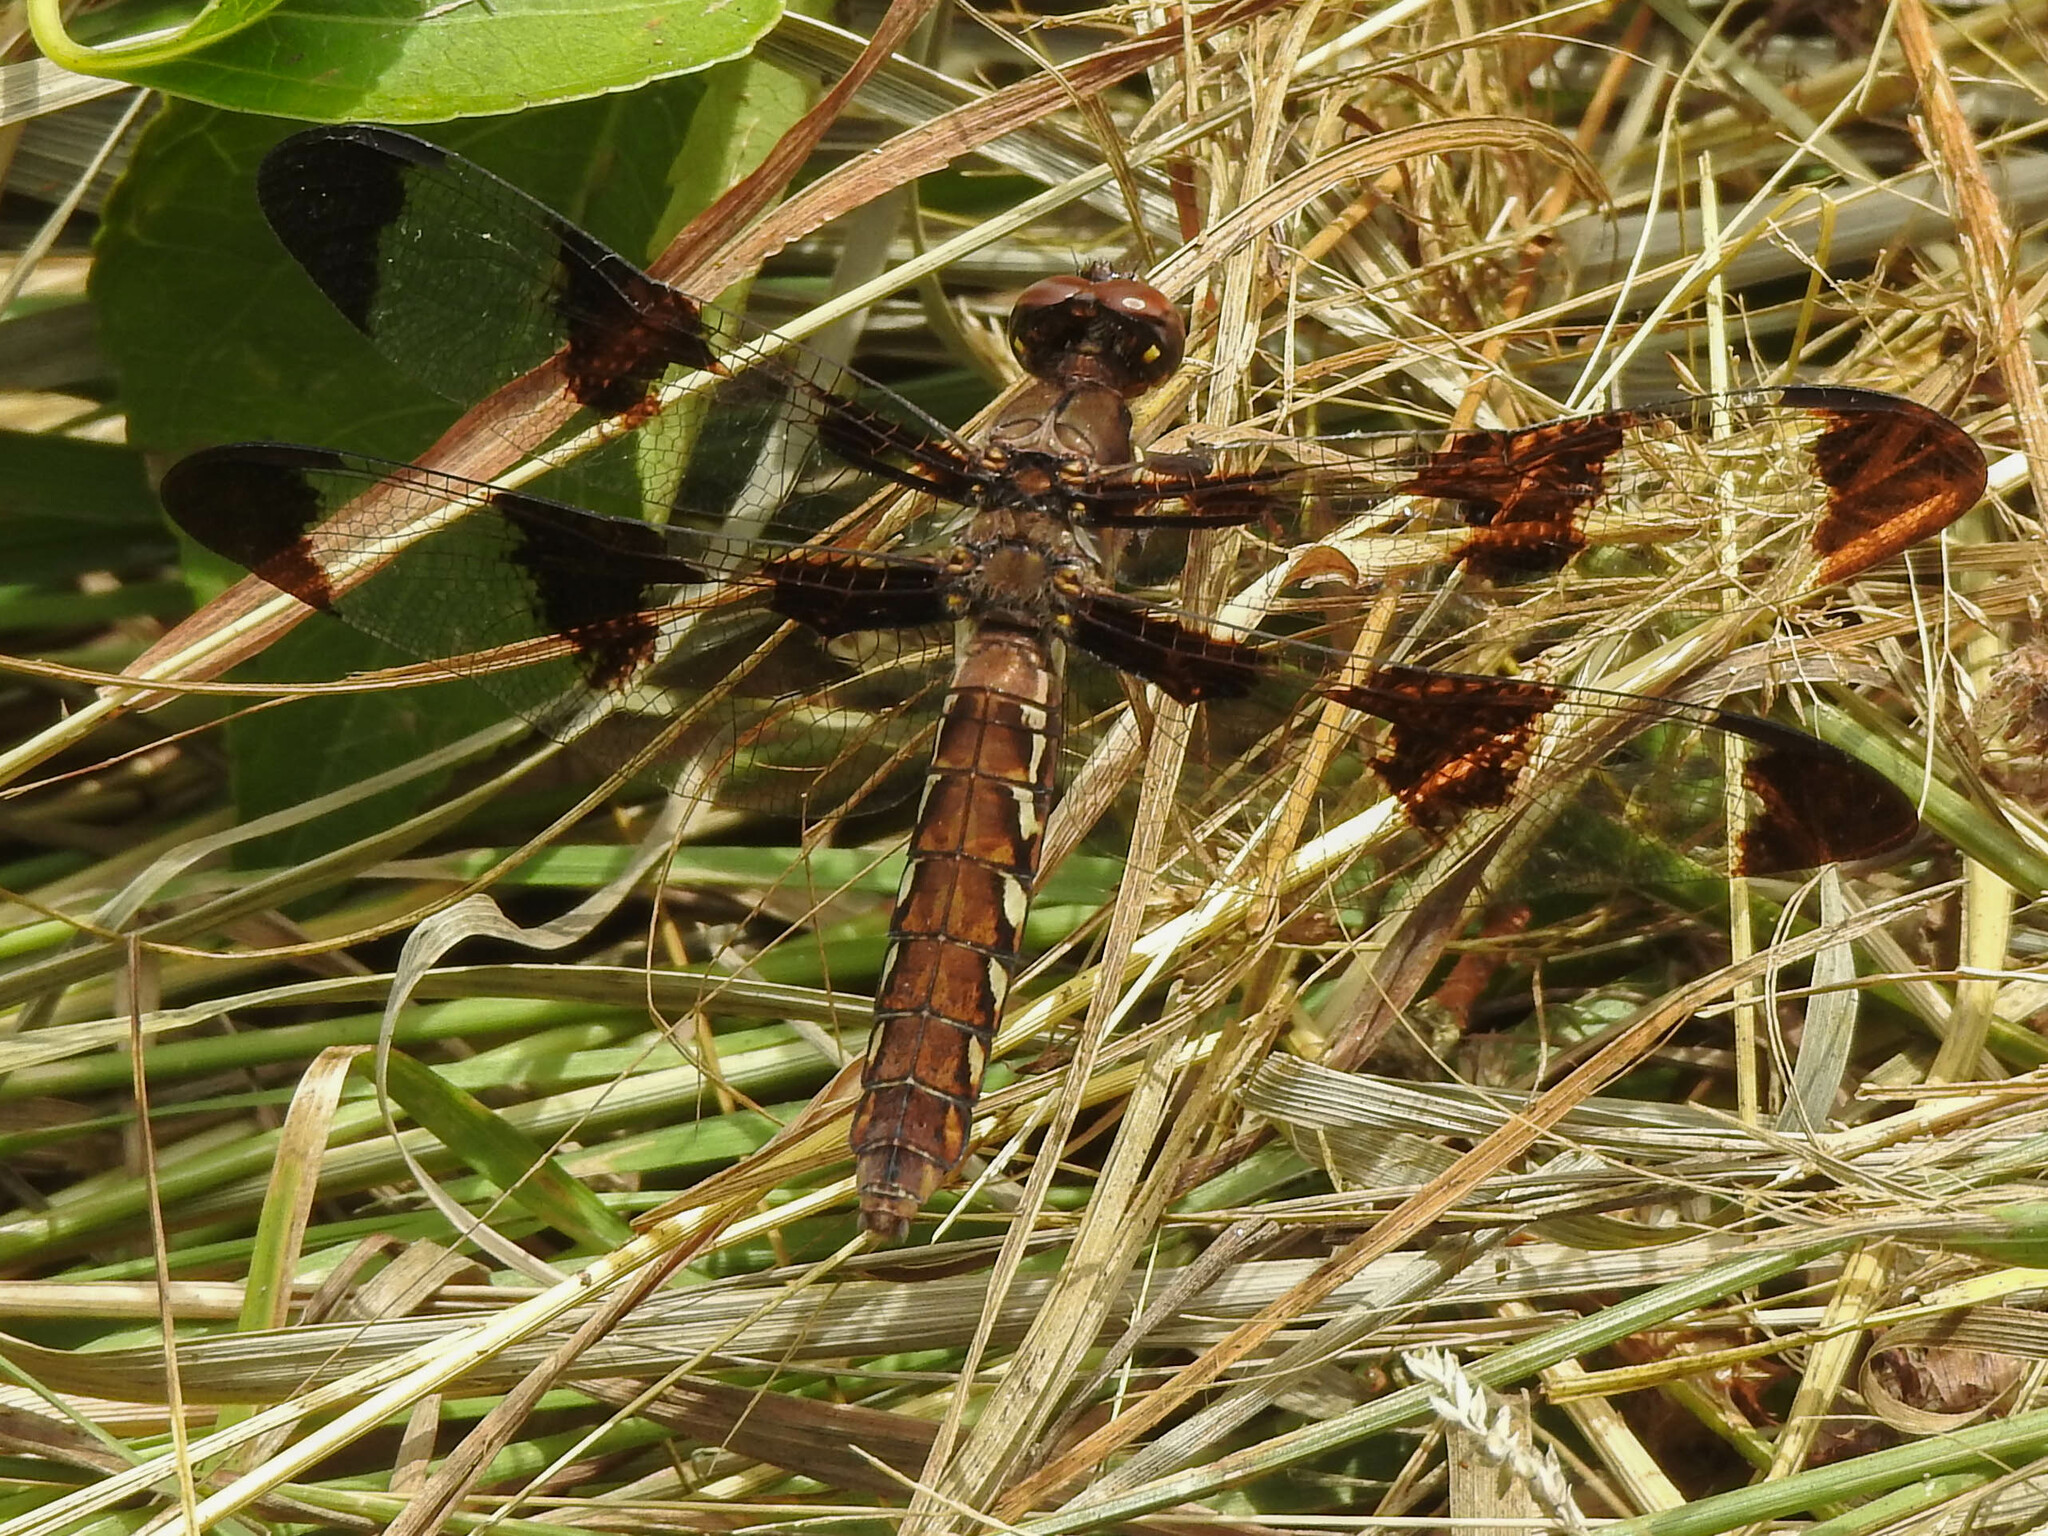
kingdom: Animalia
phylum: Arthropoda
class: Insecta
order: Odonata
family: Libellulidae
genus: Plathemis
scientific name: Plathemis lydia
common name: Common whitetail
